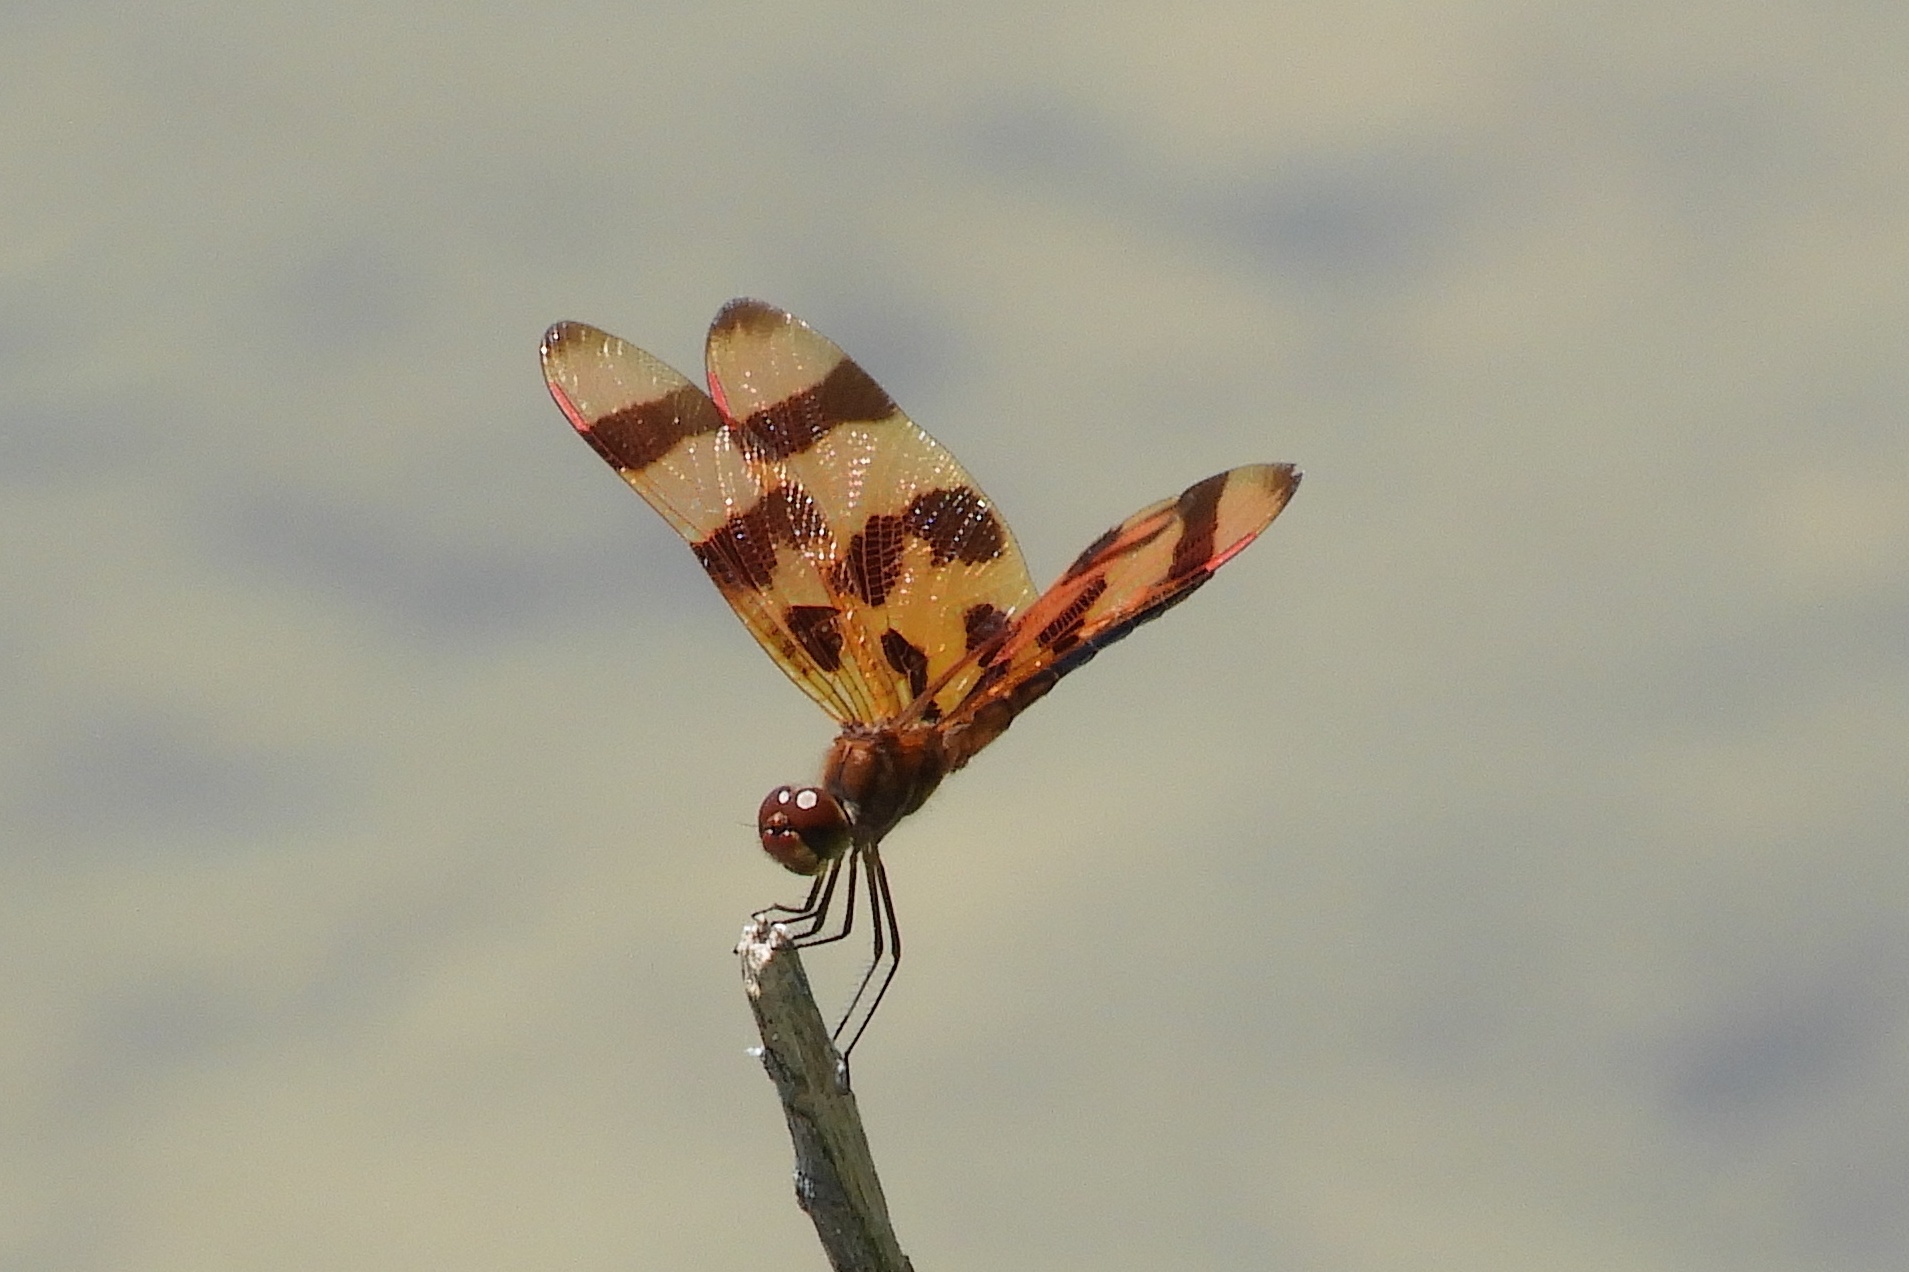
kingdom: Animalia
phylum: Arthropoda
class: Insecta
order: Odonata
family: Libellulidae
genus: Celithemis
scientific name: Celithemis eponina
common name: Halloween pennant
